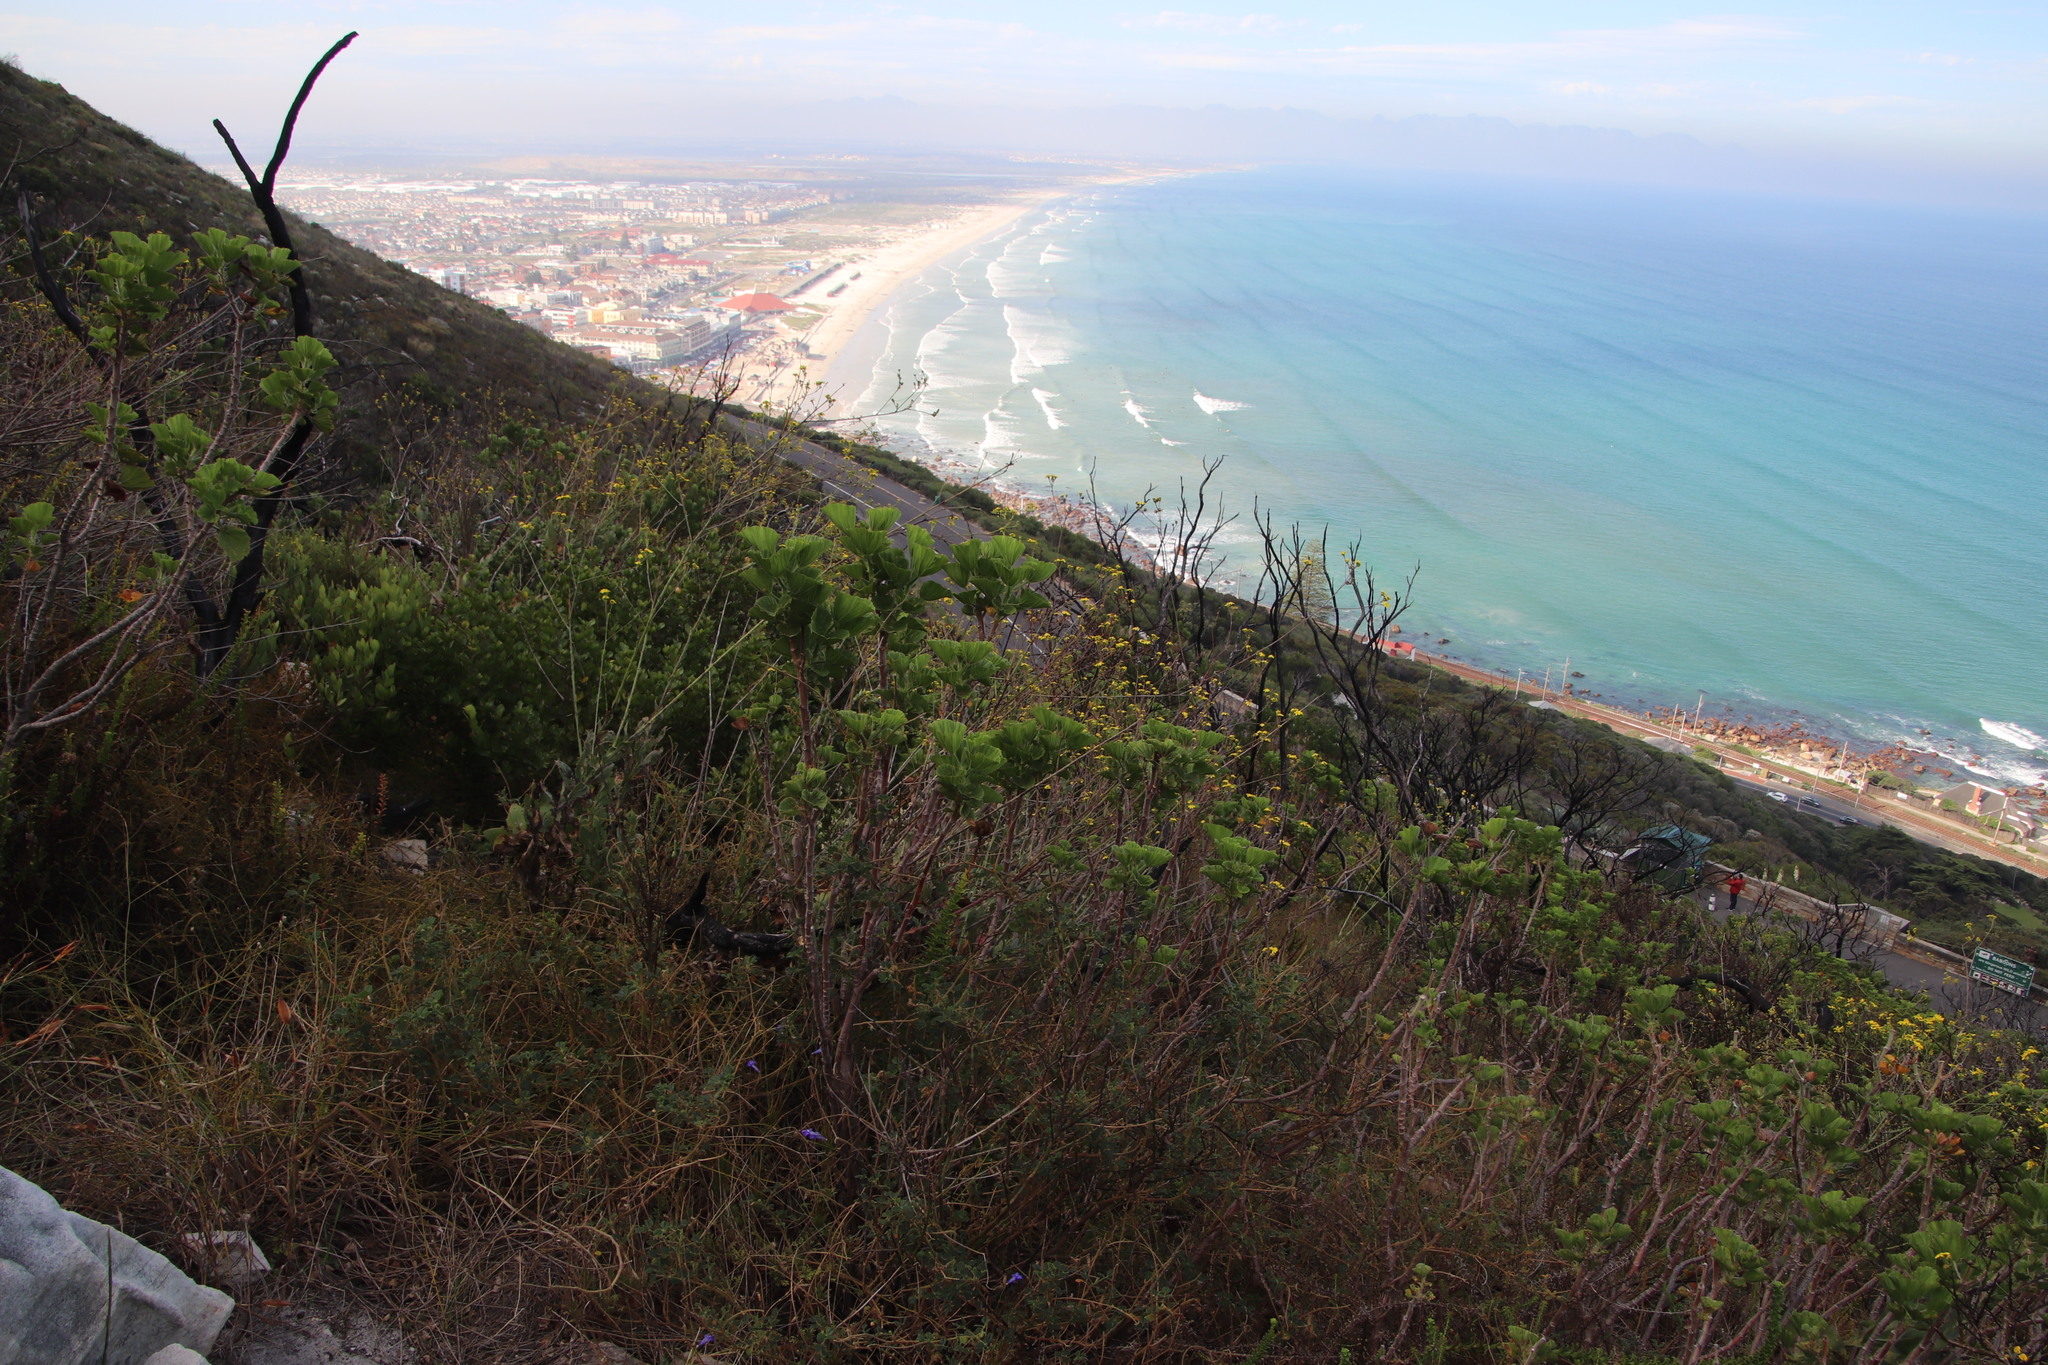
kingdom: Plantae
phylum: Tracheophyta
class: Magnoliopsida
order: Geraniales
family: Geraniaceae
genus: Pelargonium
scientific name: Pelargonium cucullatum
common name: Tree pelargonium
